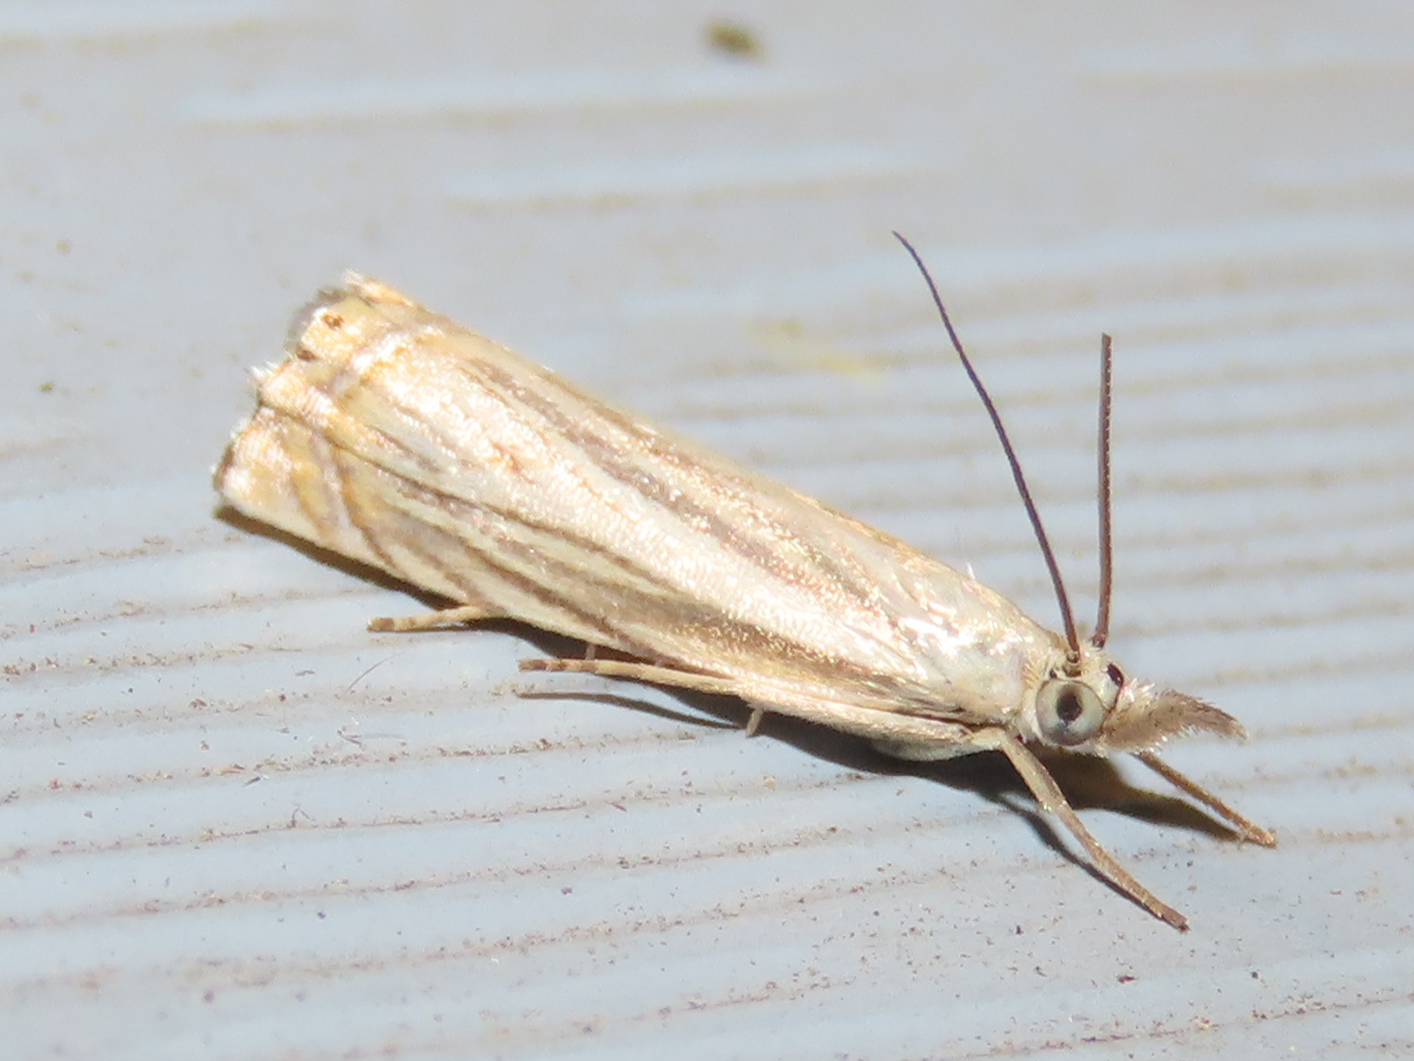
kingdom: Animalia
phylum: Arthropoda
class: Insecta
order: Lepidoptera
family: Crambidae
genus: Chrysoteuchia
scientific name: Chrysoteuchia topiarius
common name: Topiary grass-veneer
